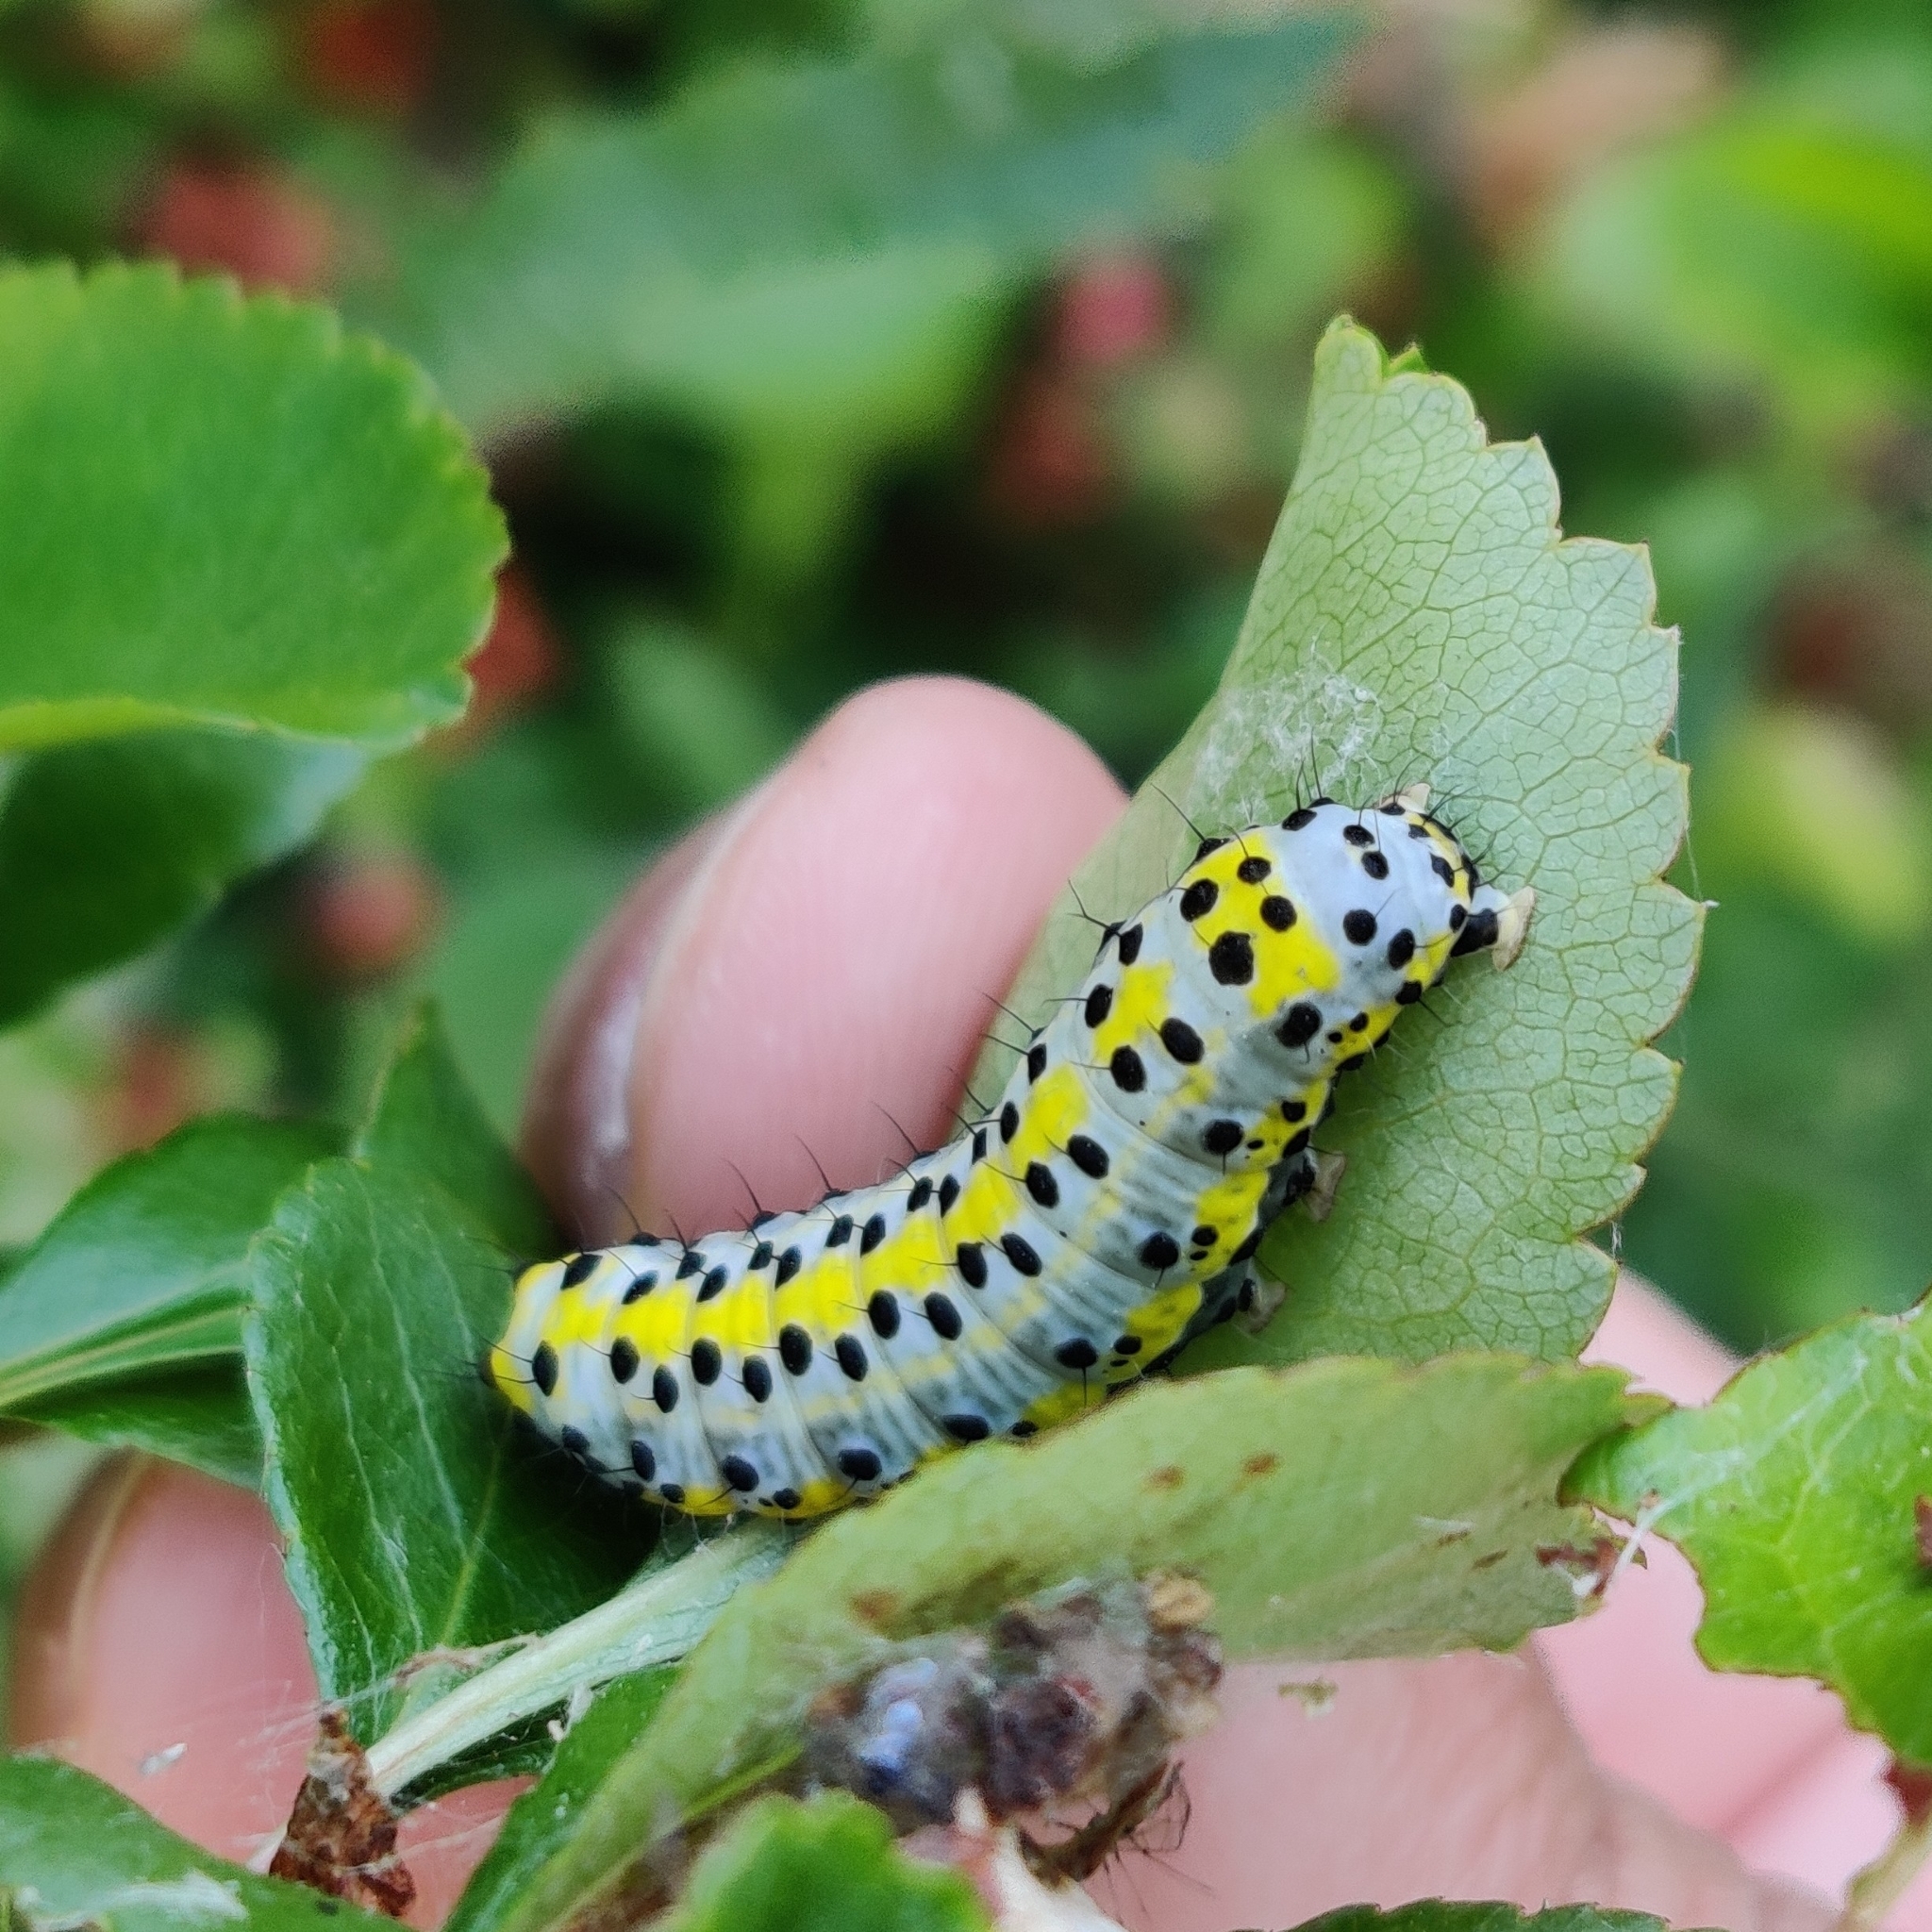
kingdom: Animalia
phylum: Arthropoda
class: Insecta
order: Lepidoptera
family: Noctuidae
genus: Diloba
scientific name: Diloba caeruleocephala
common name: Figure of eight
